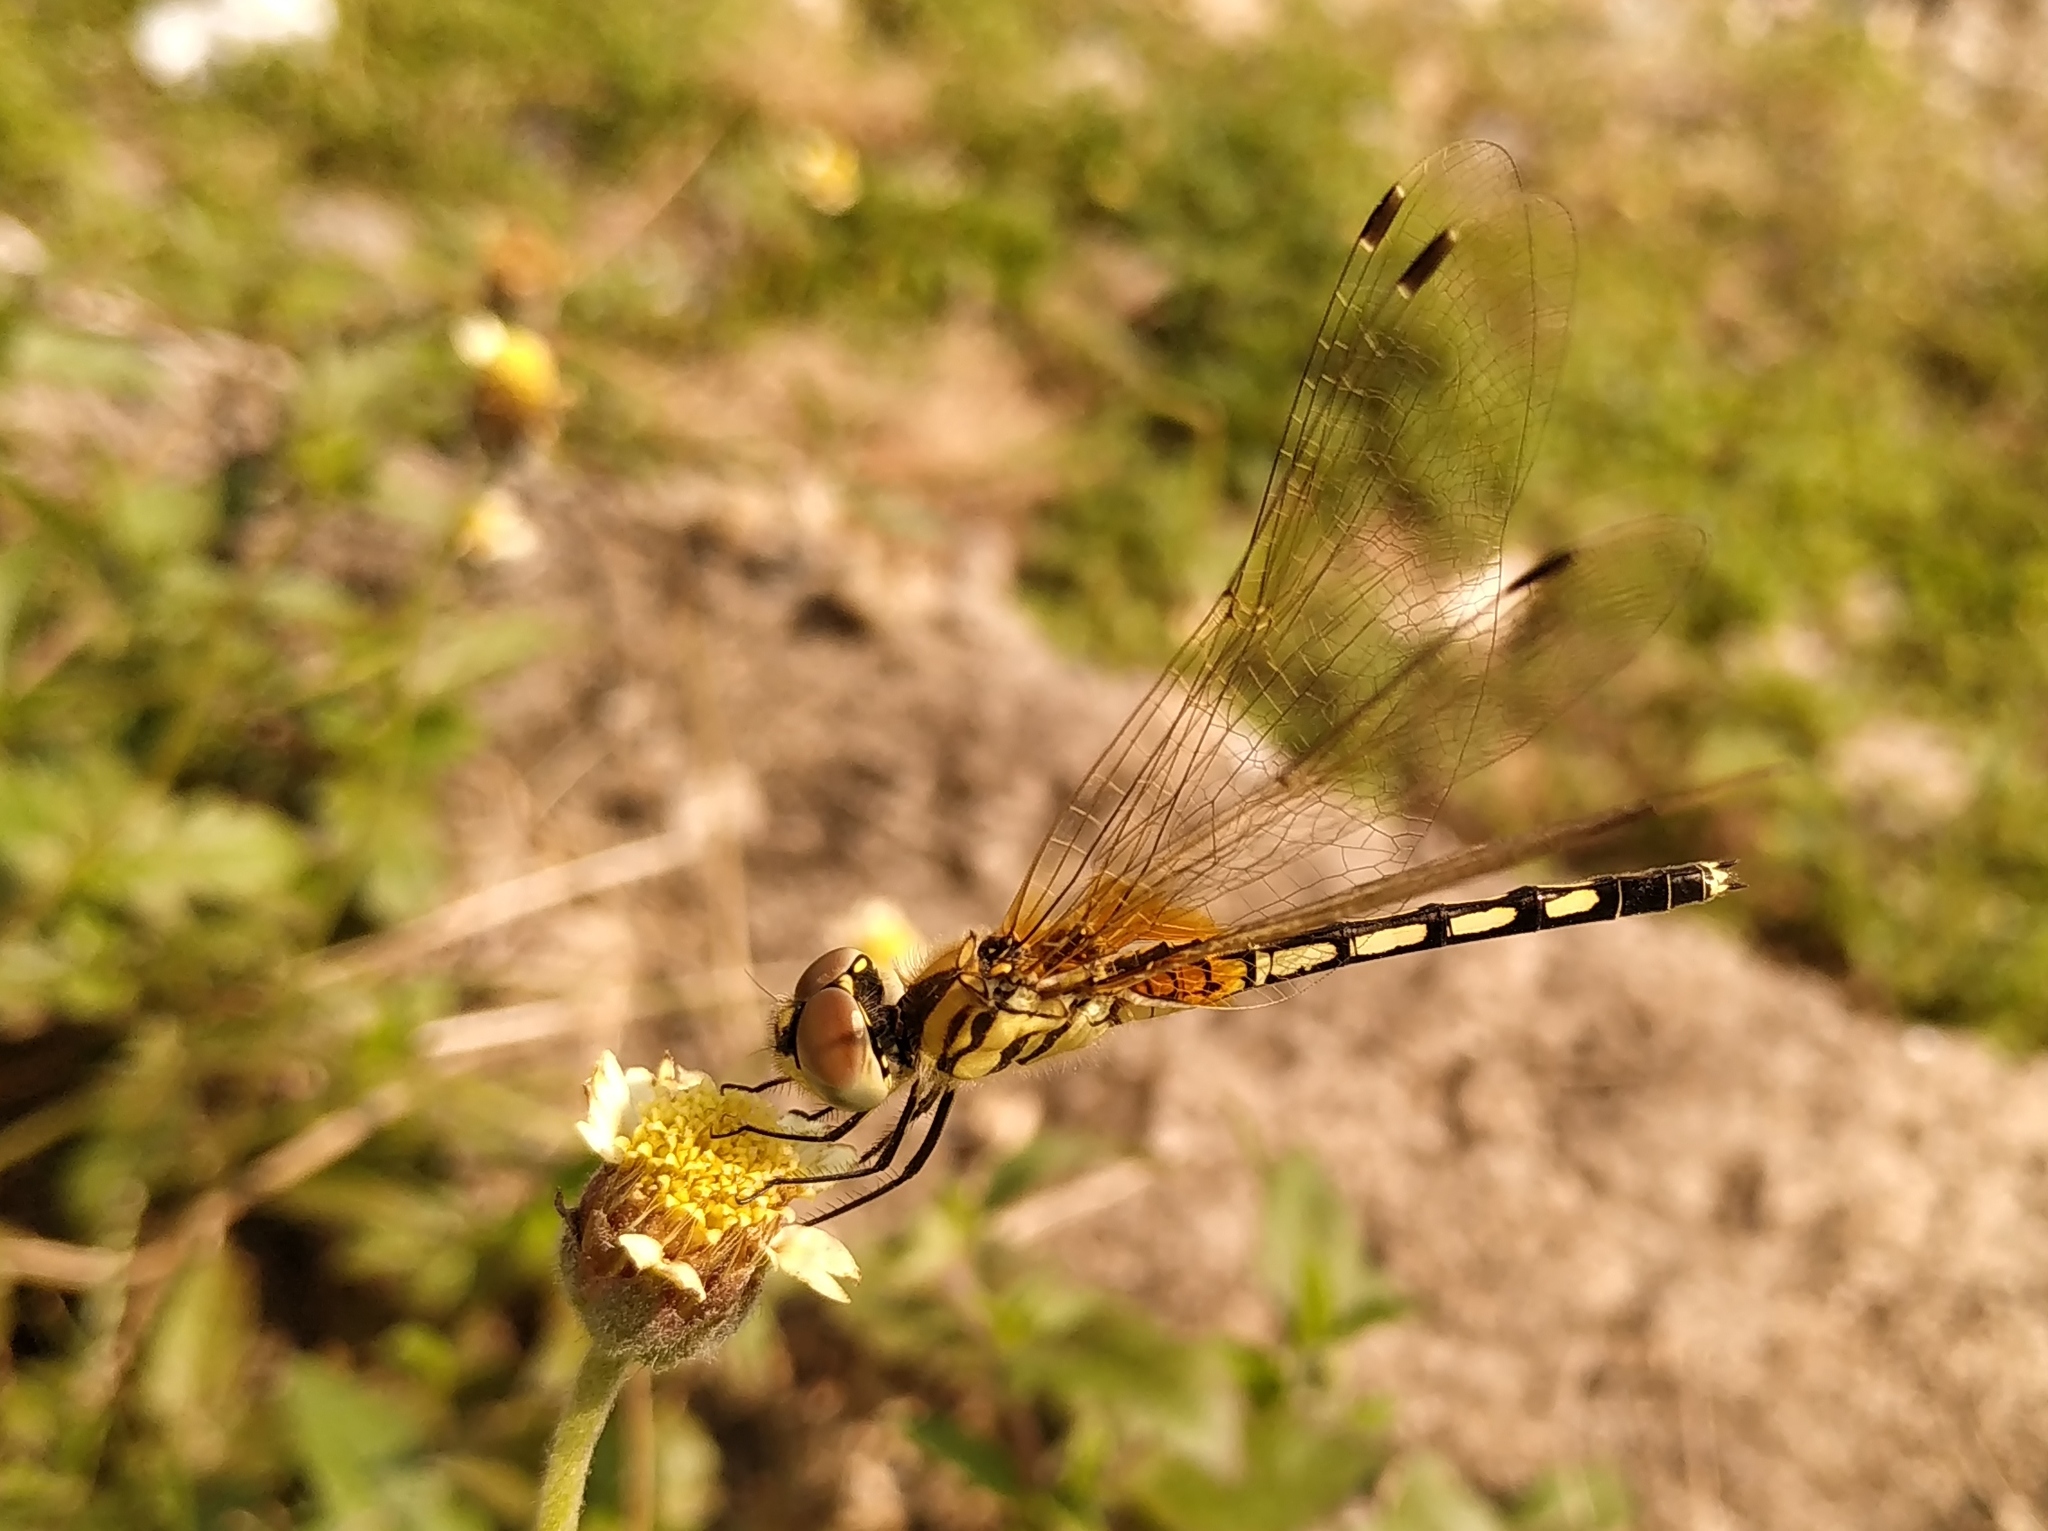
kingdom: Animalia
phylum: Arthropoda
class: Insecta
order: Odonata
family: Libellulidae
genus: Trithemis
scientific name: Trithemis pallidinervis
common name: Dancing dropwing
